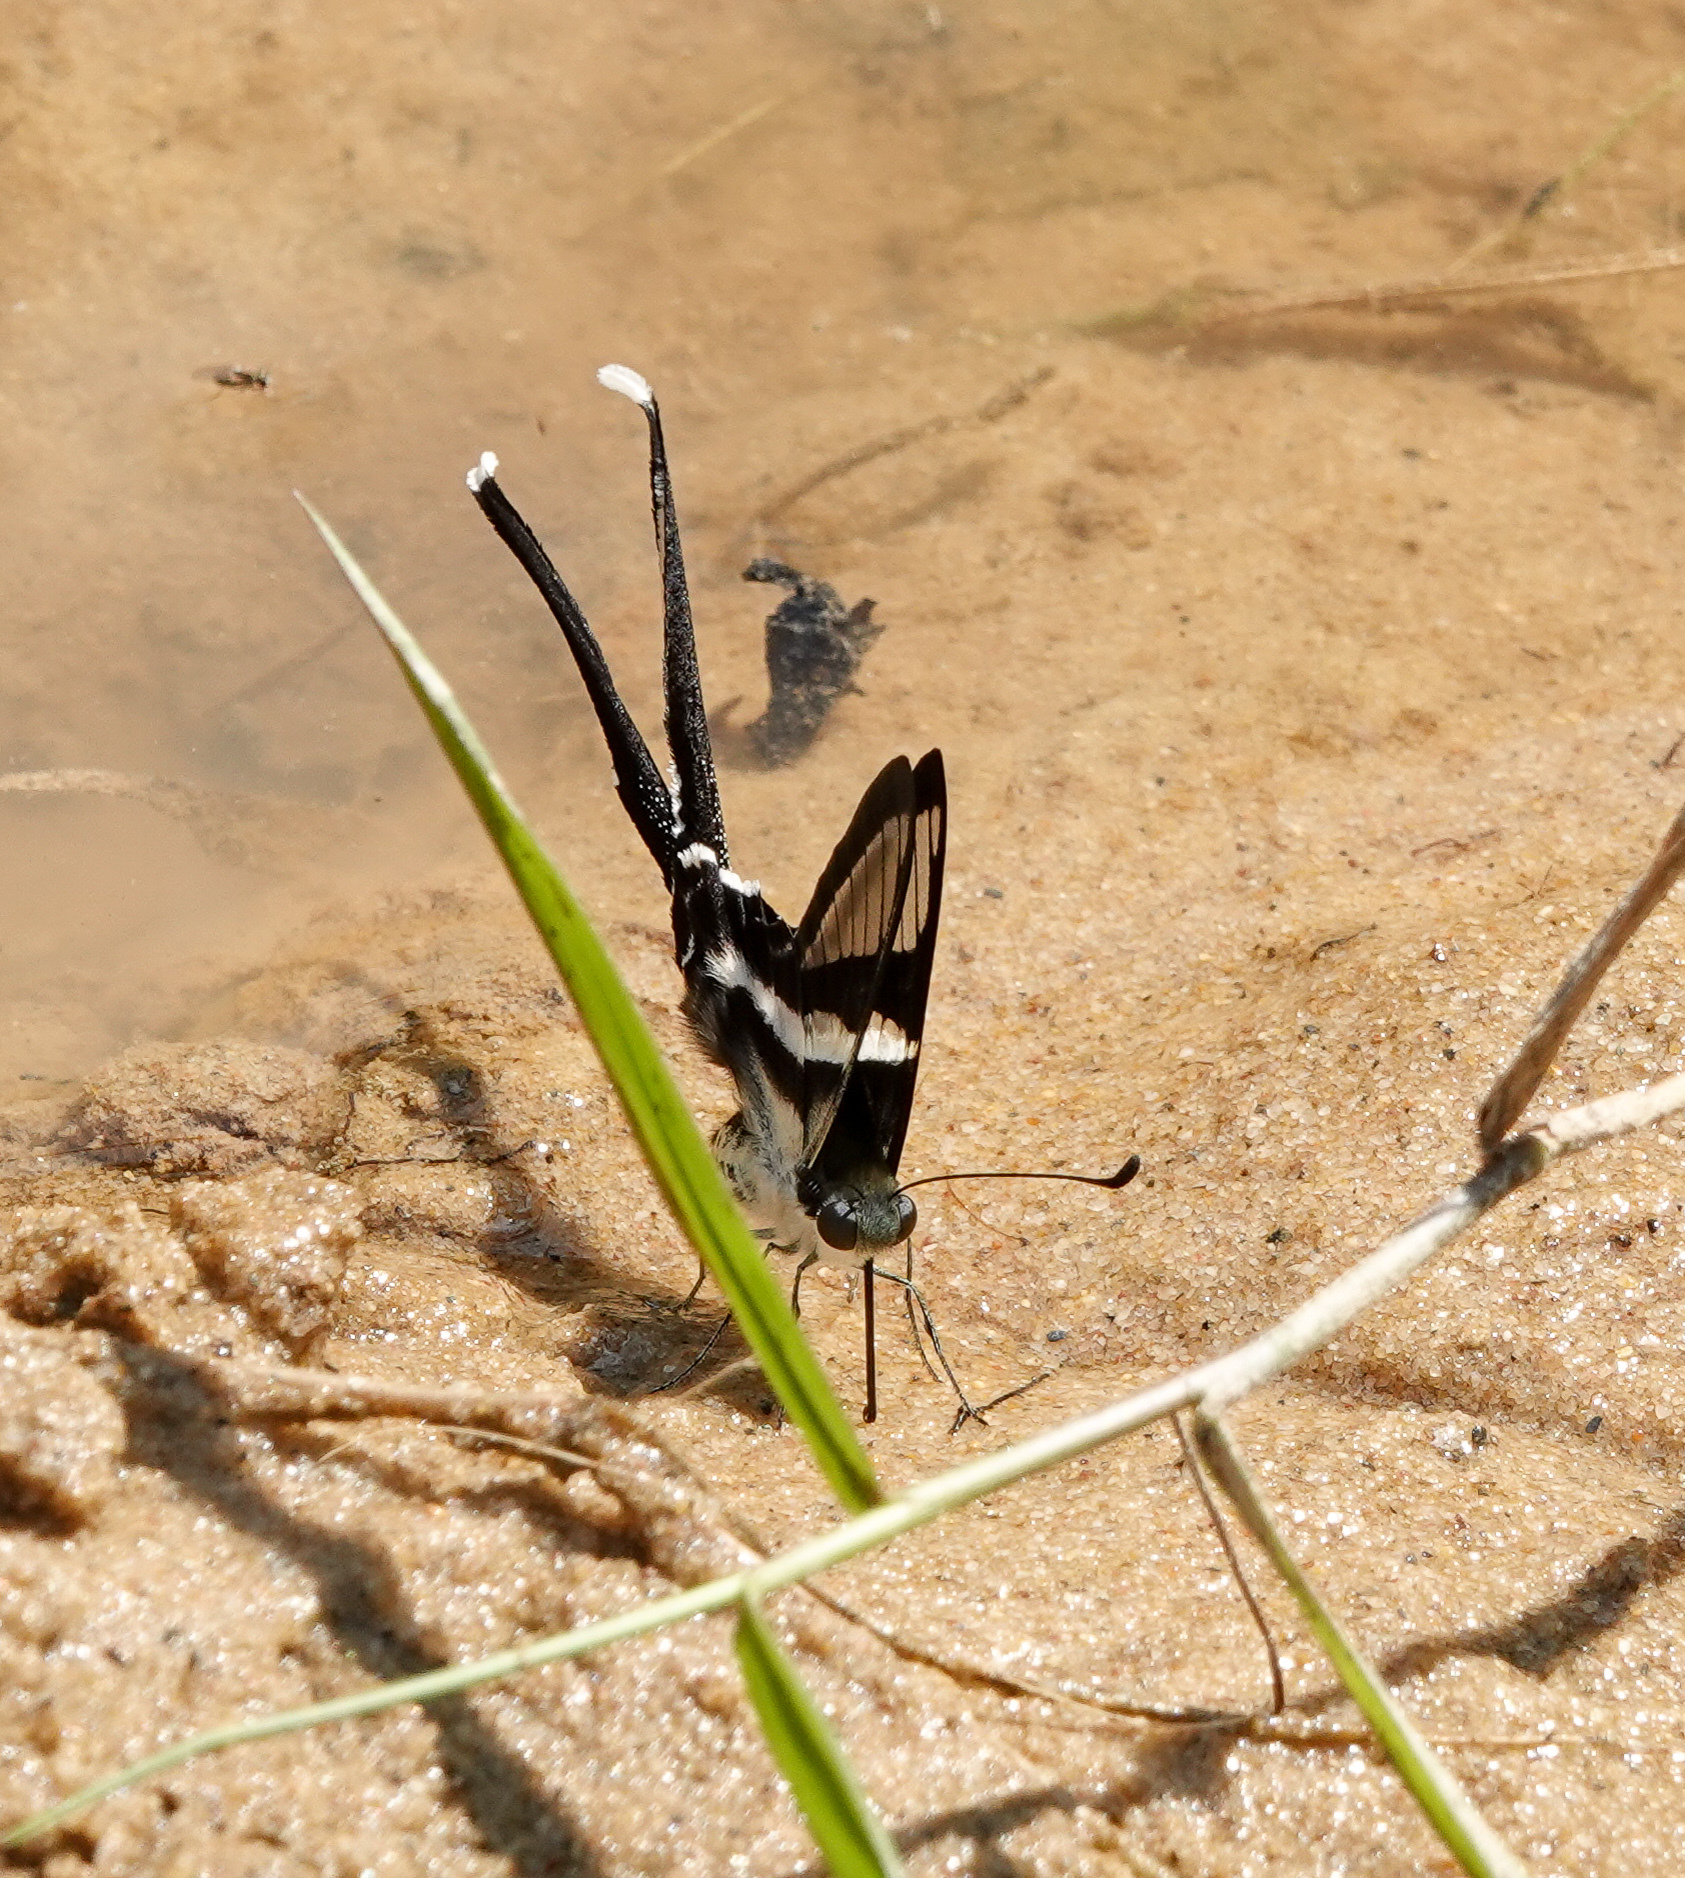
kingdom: Animalia
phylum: Arthropoda
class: Insecta
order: Lepidoptera
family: Papilionidae
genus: Lamproptera
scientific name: Lamproptera curius
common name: White dragontail
